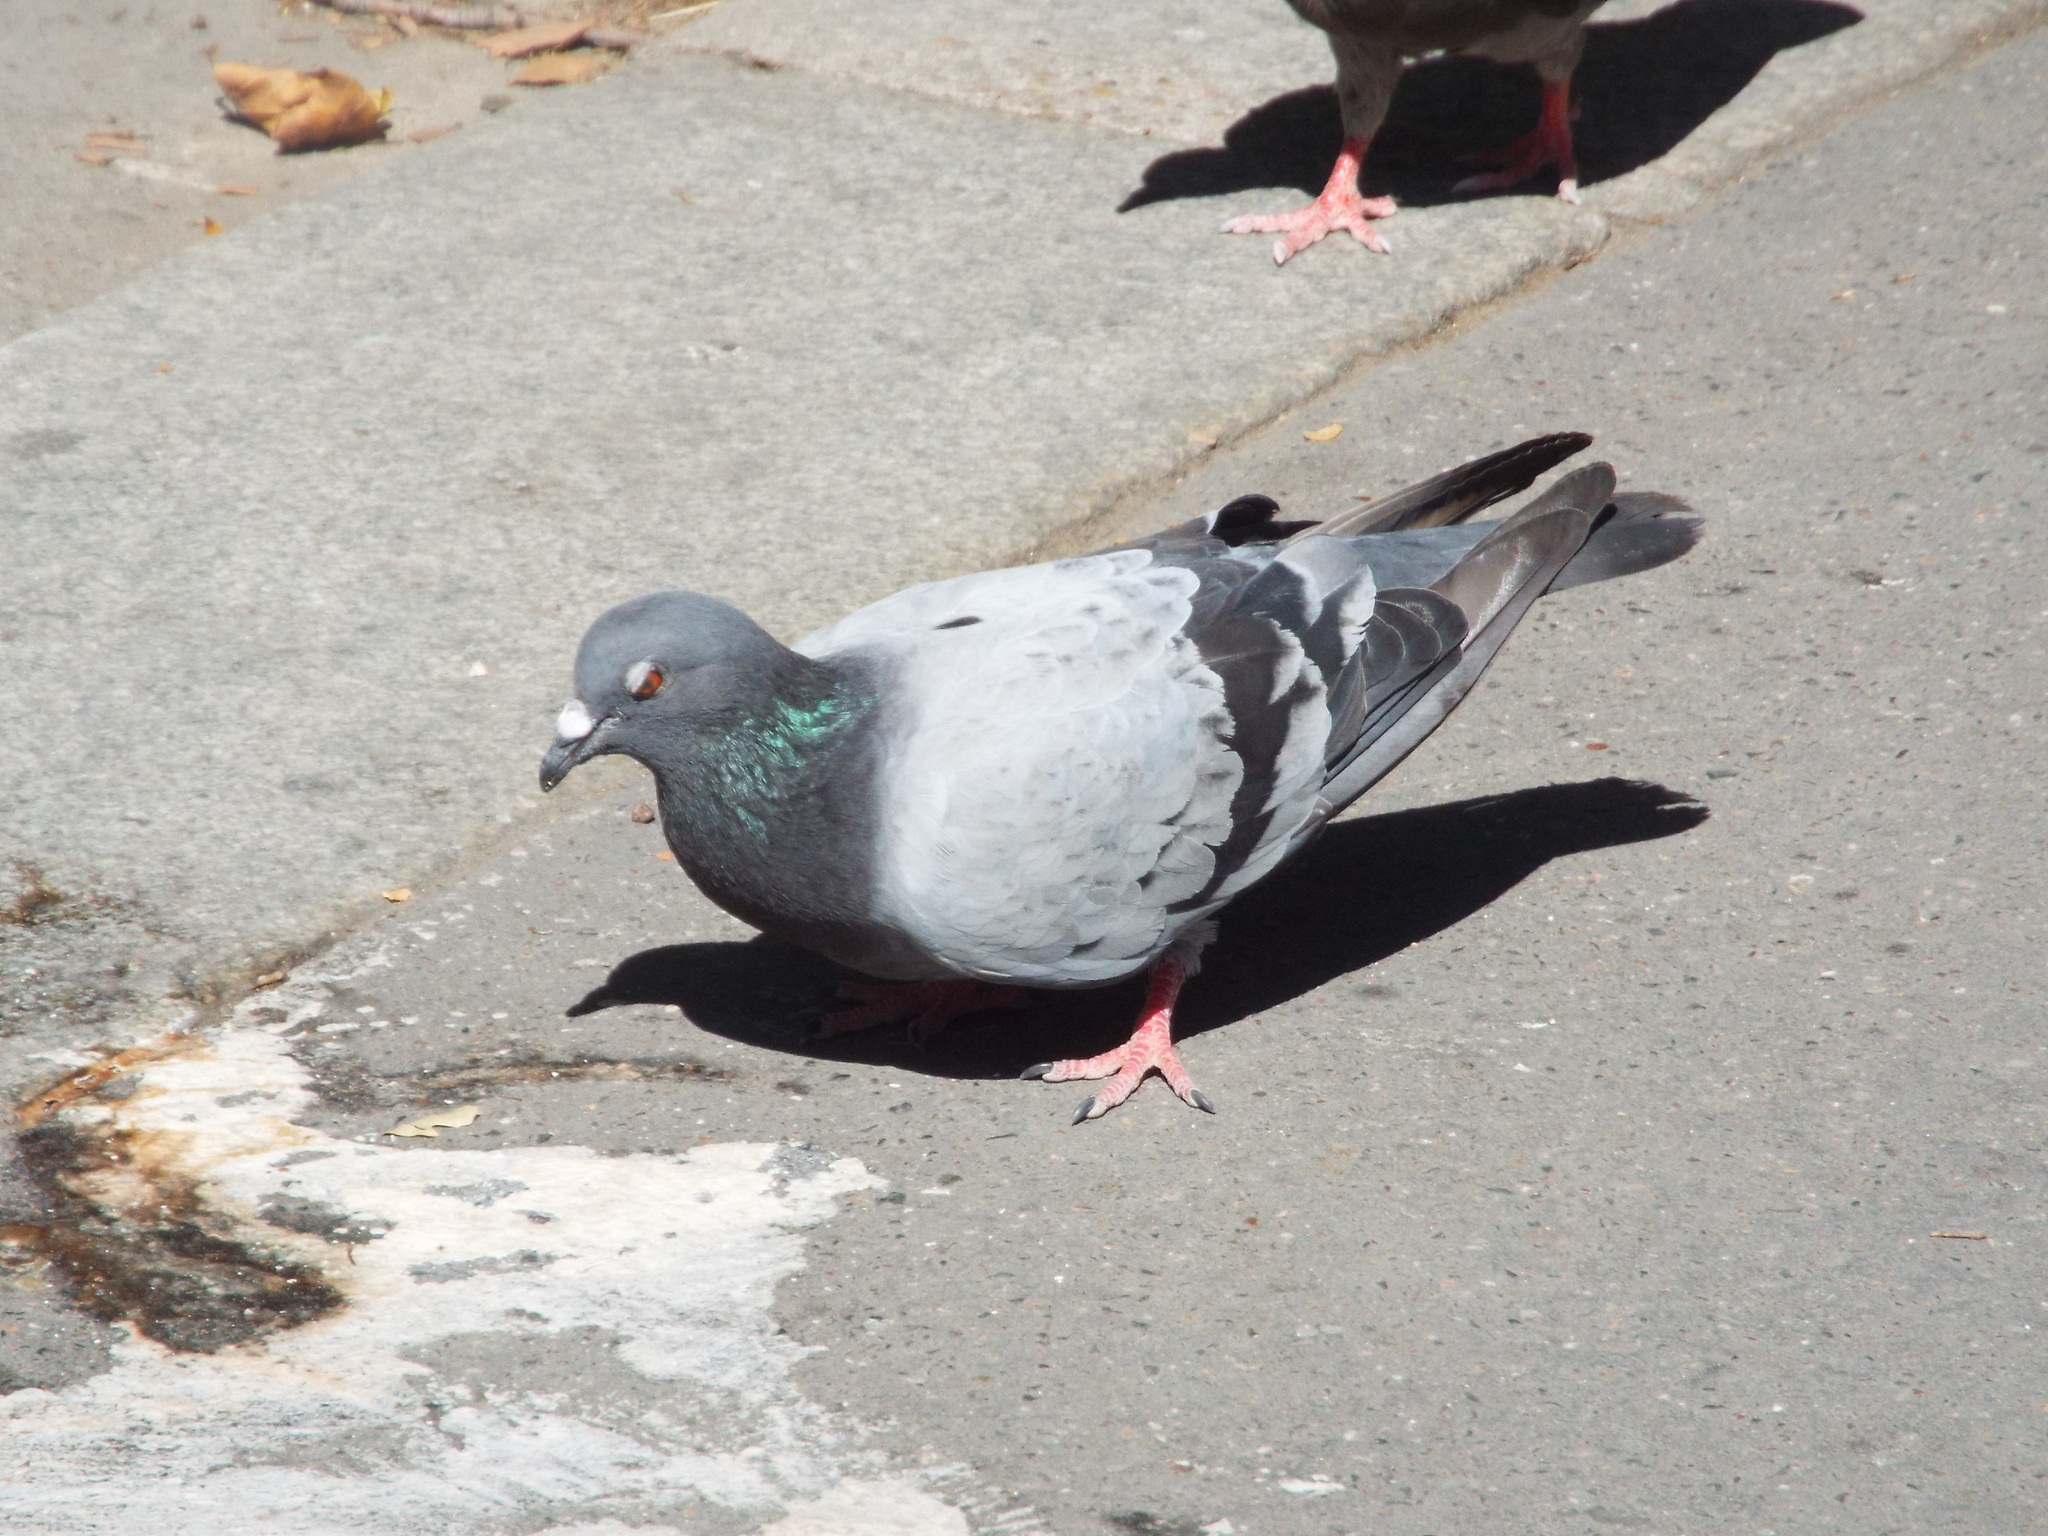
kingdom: Animalia
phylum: Chordata
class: Aves
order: Columbiformes
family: Columbidae
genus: Columba
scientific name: Columba livia
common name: Rock pigeon
